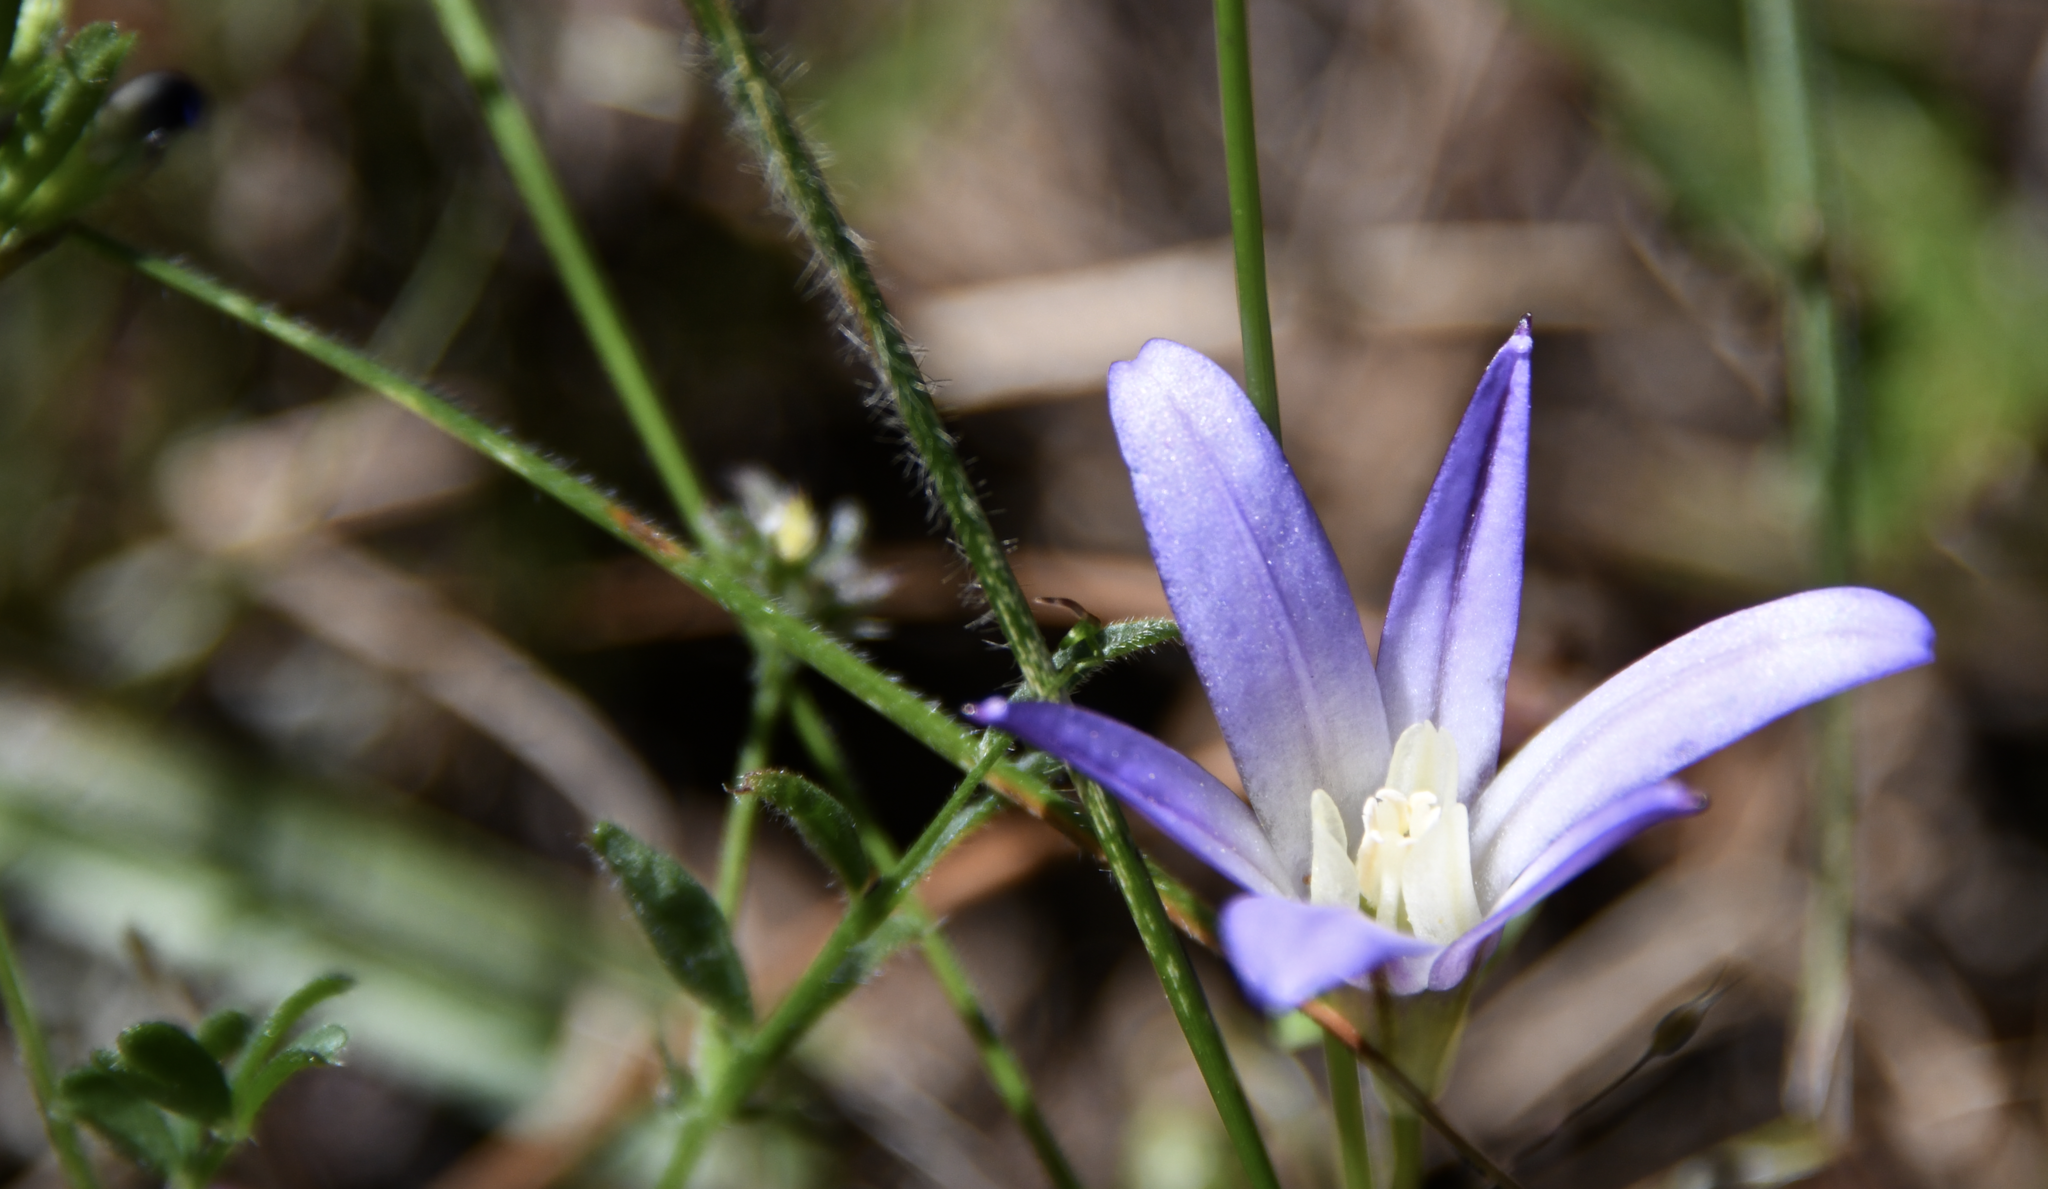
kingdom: Plantae
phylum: Tracheophyta
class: Liliopsida
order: Asparagales
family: Asparagaceae
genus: Brodiaea
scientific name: Brodiaea terrestris
